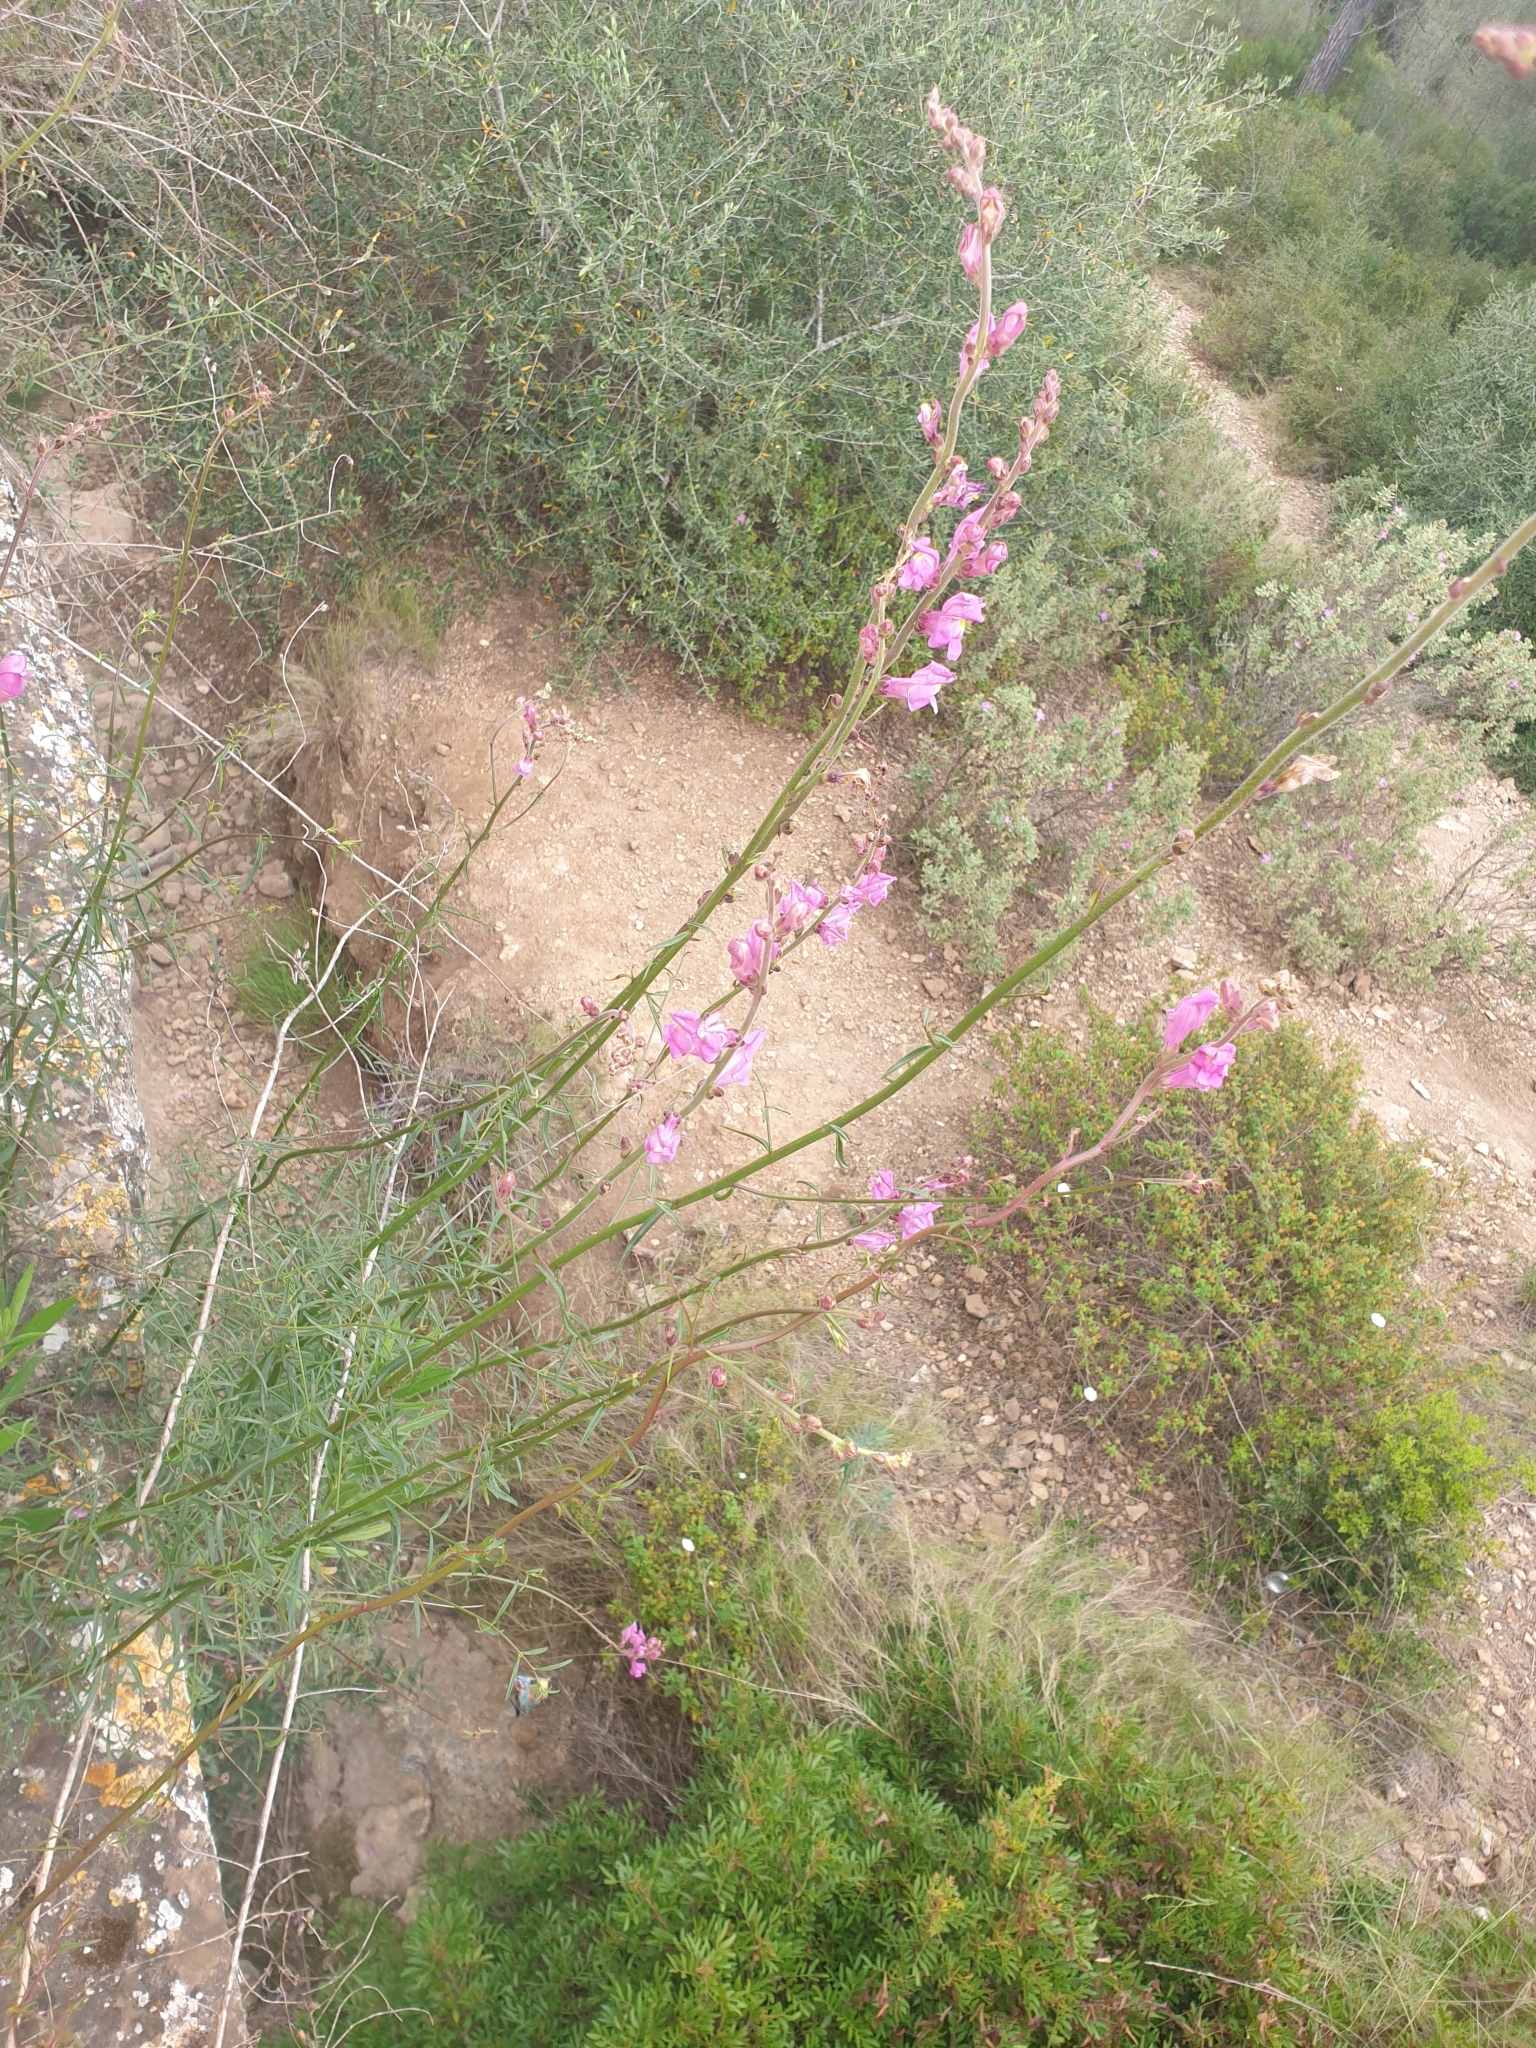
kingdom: Plantae
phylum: Tracheophyta
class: Magnoliopsida
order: Lamiales
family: Plantaginaceae
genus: Antirrhinum
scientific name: Antirrhinum litigiosum
